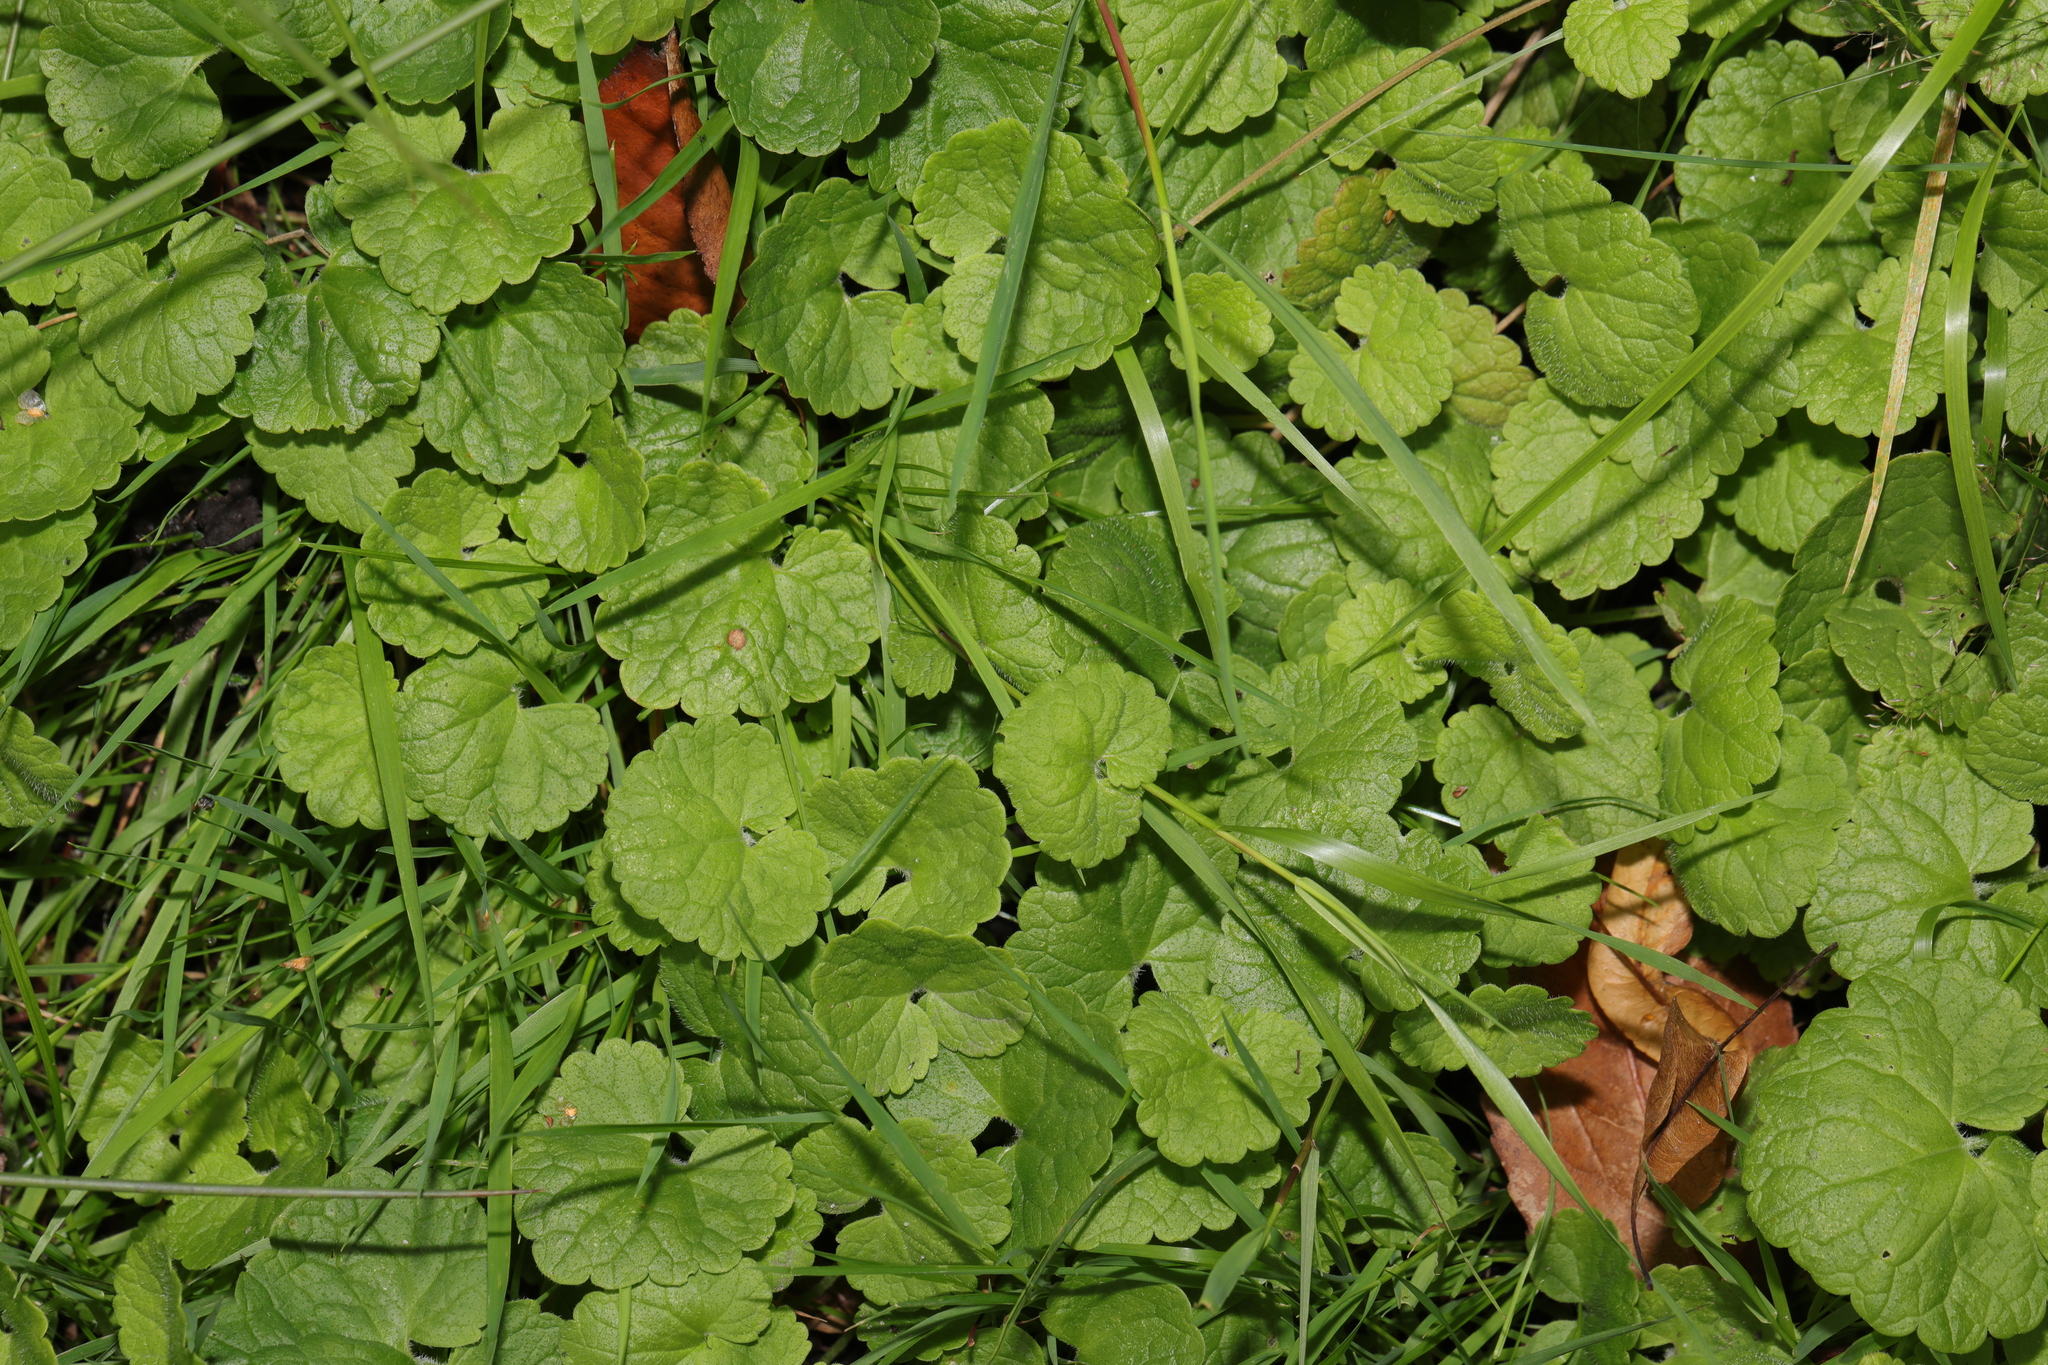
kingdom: Plantae
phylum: Tracheophyta
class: Magnoliopsida
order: Lamiales
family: Lamiaceae
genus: Glechoma
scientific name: Glechoma hederacea
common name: Ground ivy
